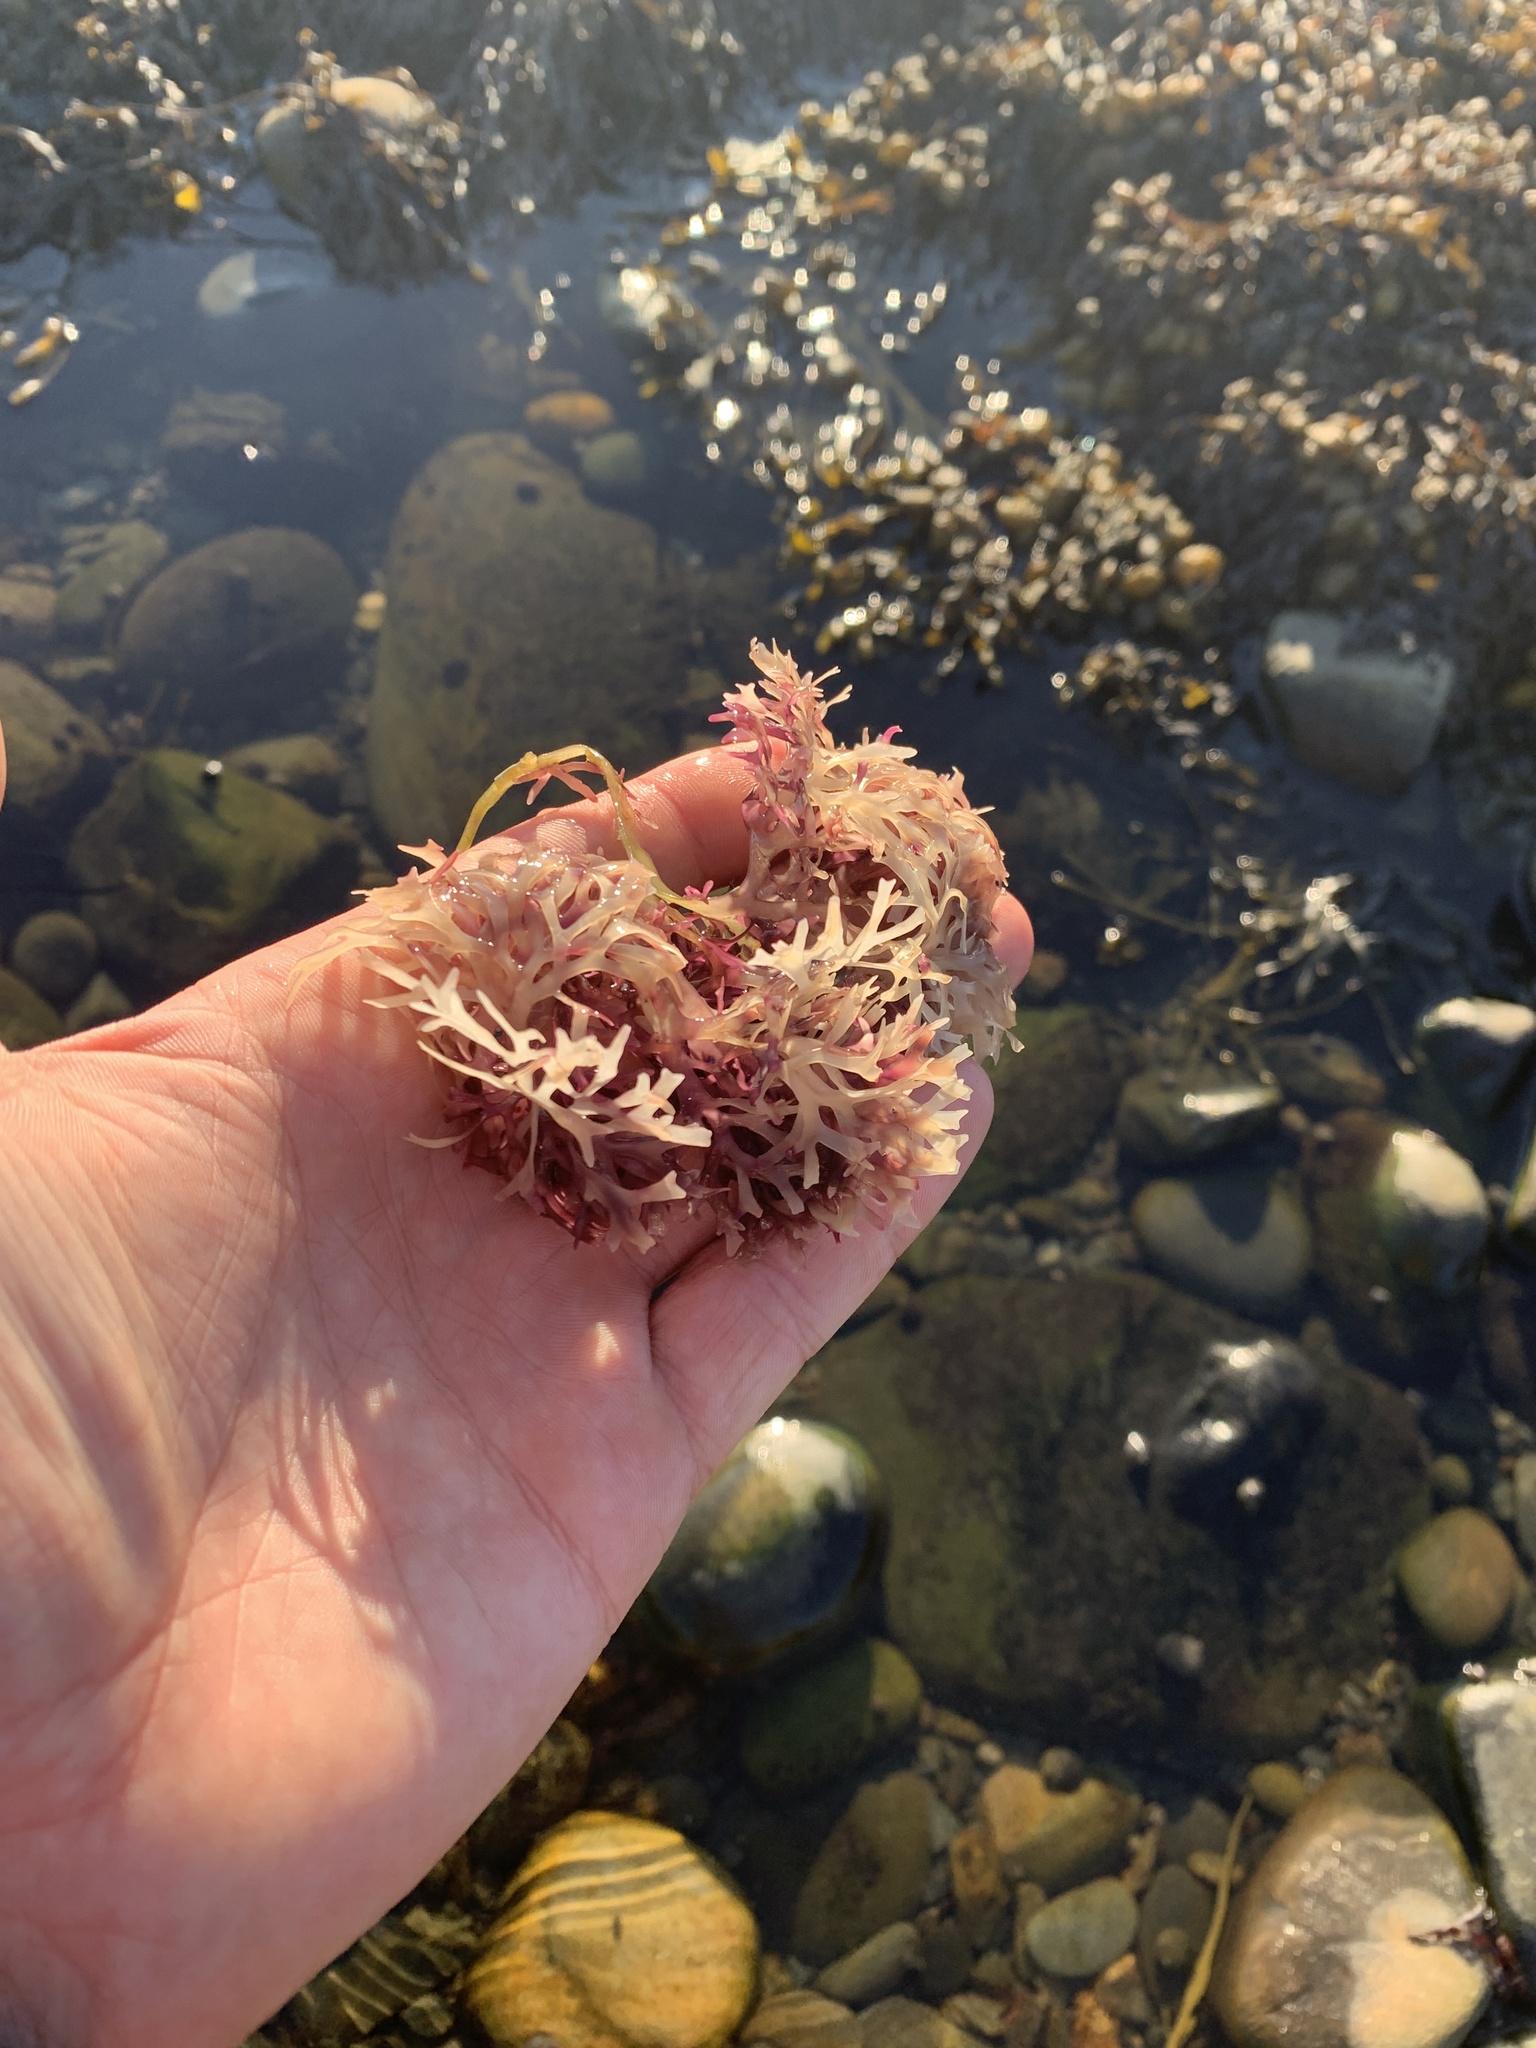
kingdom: Plantae
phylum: Rhodophyta
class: Florideophyceae
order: Gigartinales
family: Gigartinaceae
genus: Chondrus
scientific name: Chondrus crispus
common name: Carrageen
